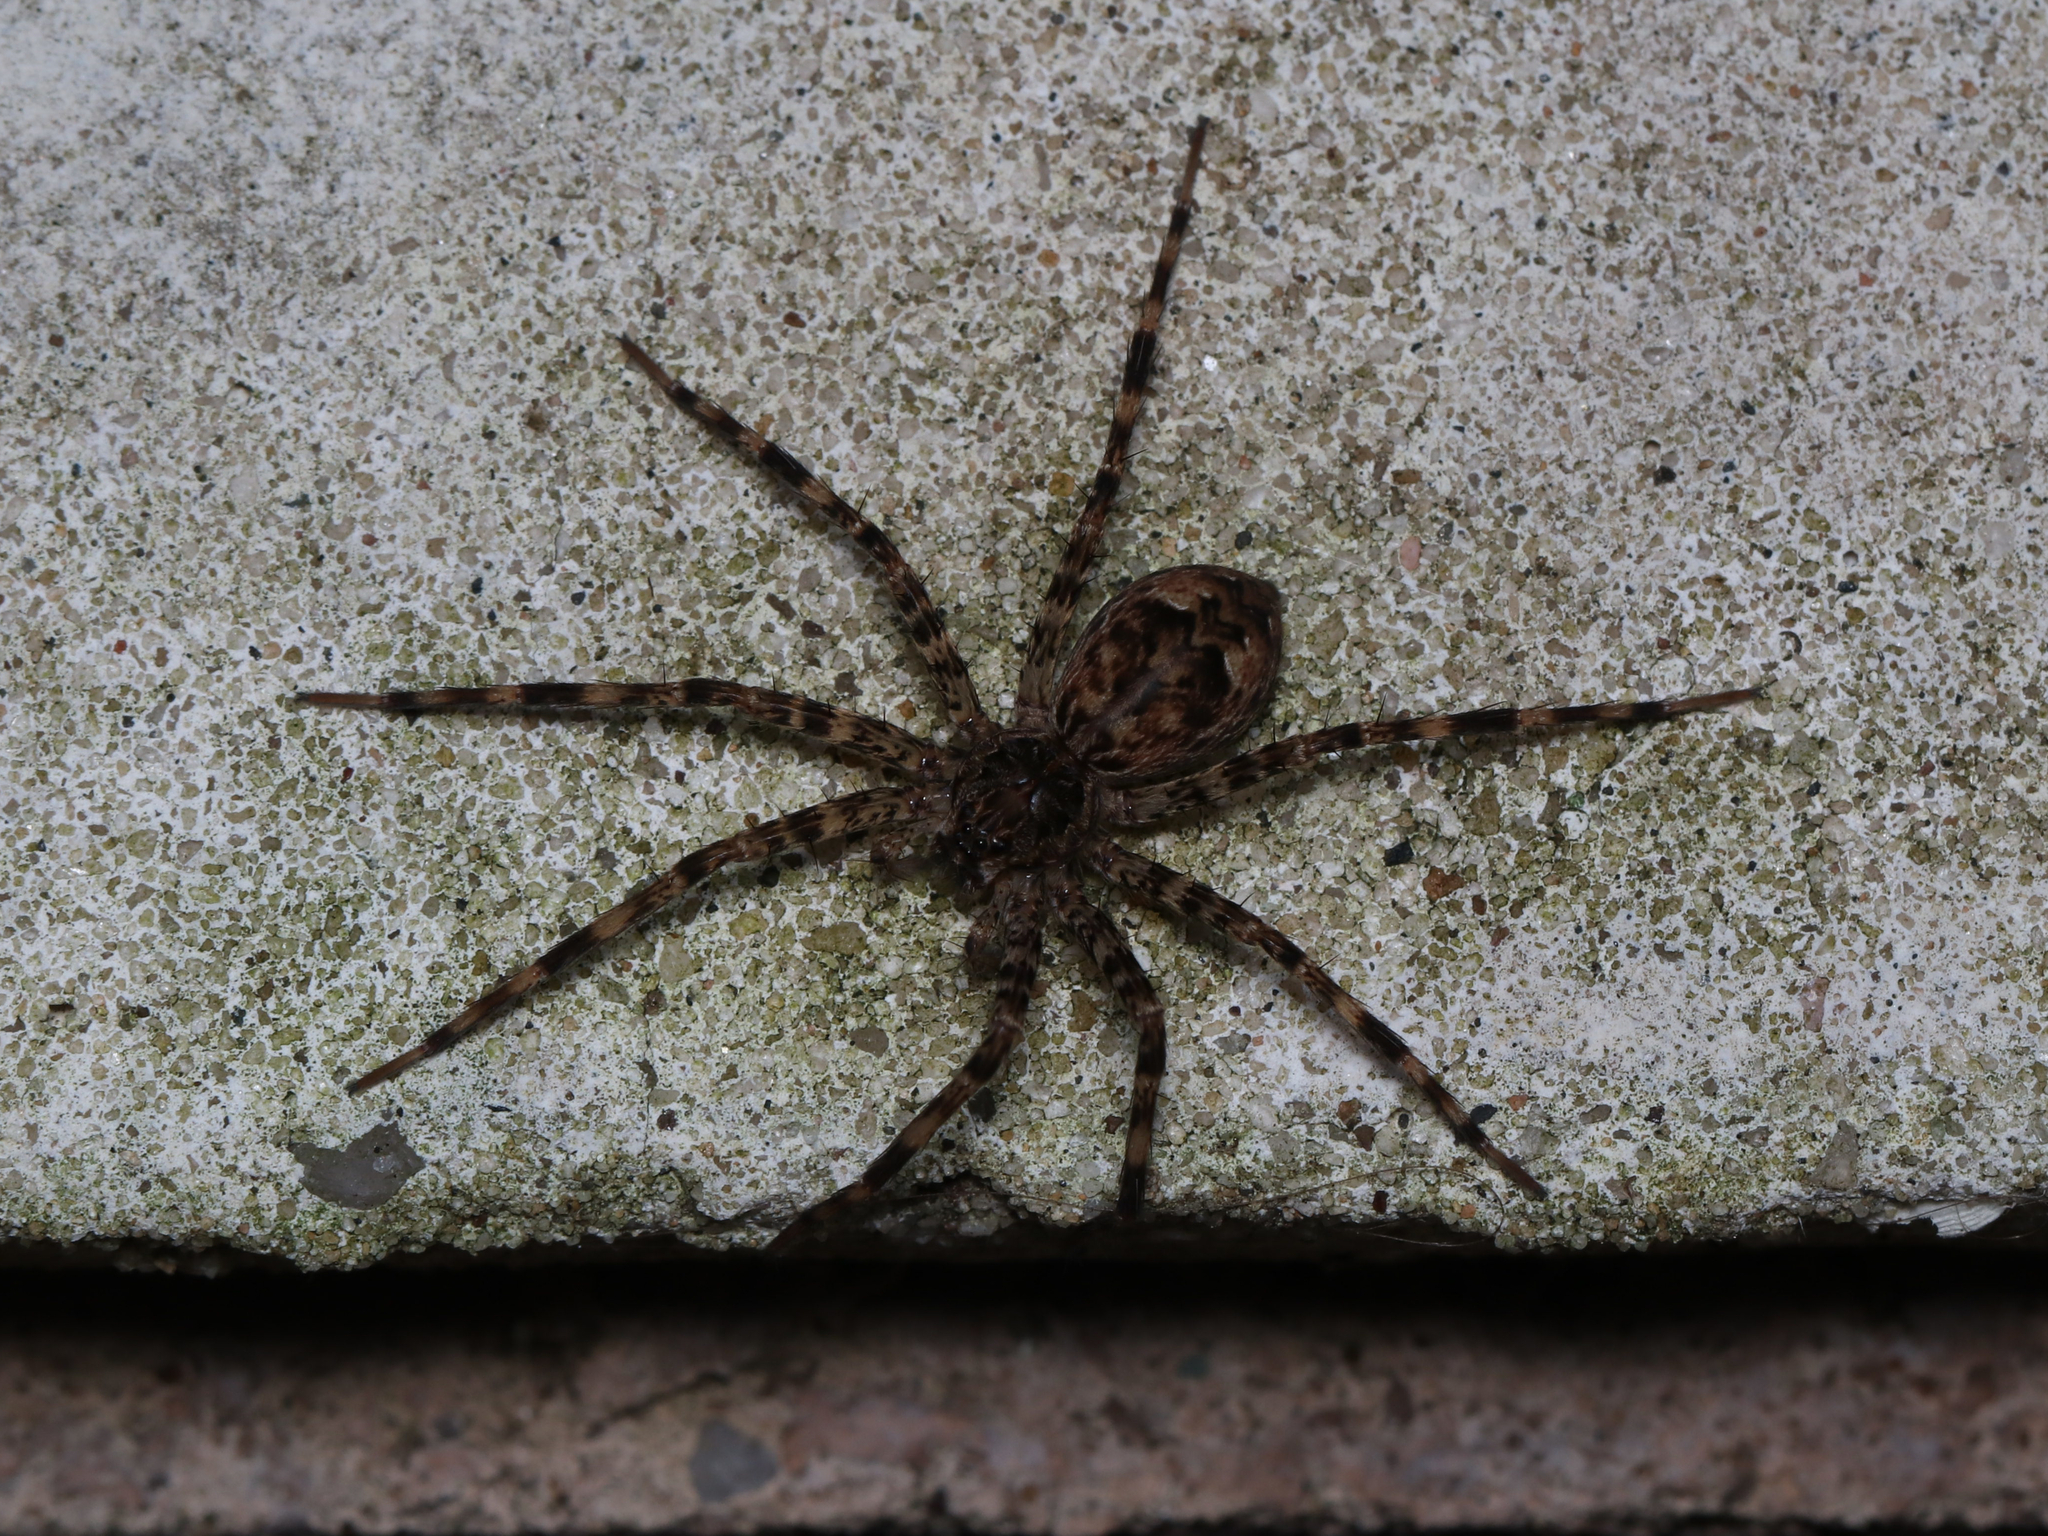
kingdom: Animalia
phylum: Arthropoda
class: Arachnida
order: Araneae
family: Pisauridae
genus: Dolomedes
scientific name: Dolomedes tenebrosus
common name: Dark fishing spider
